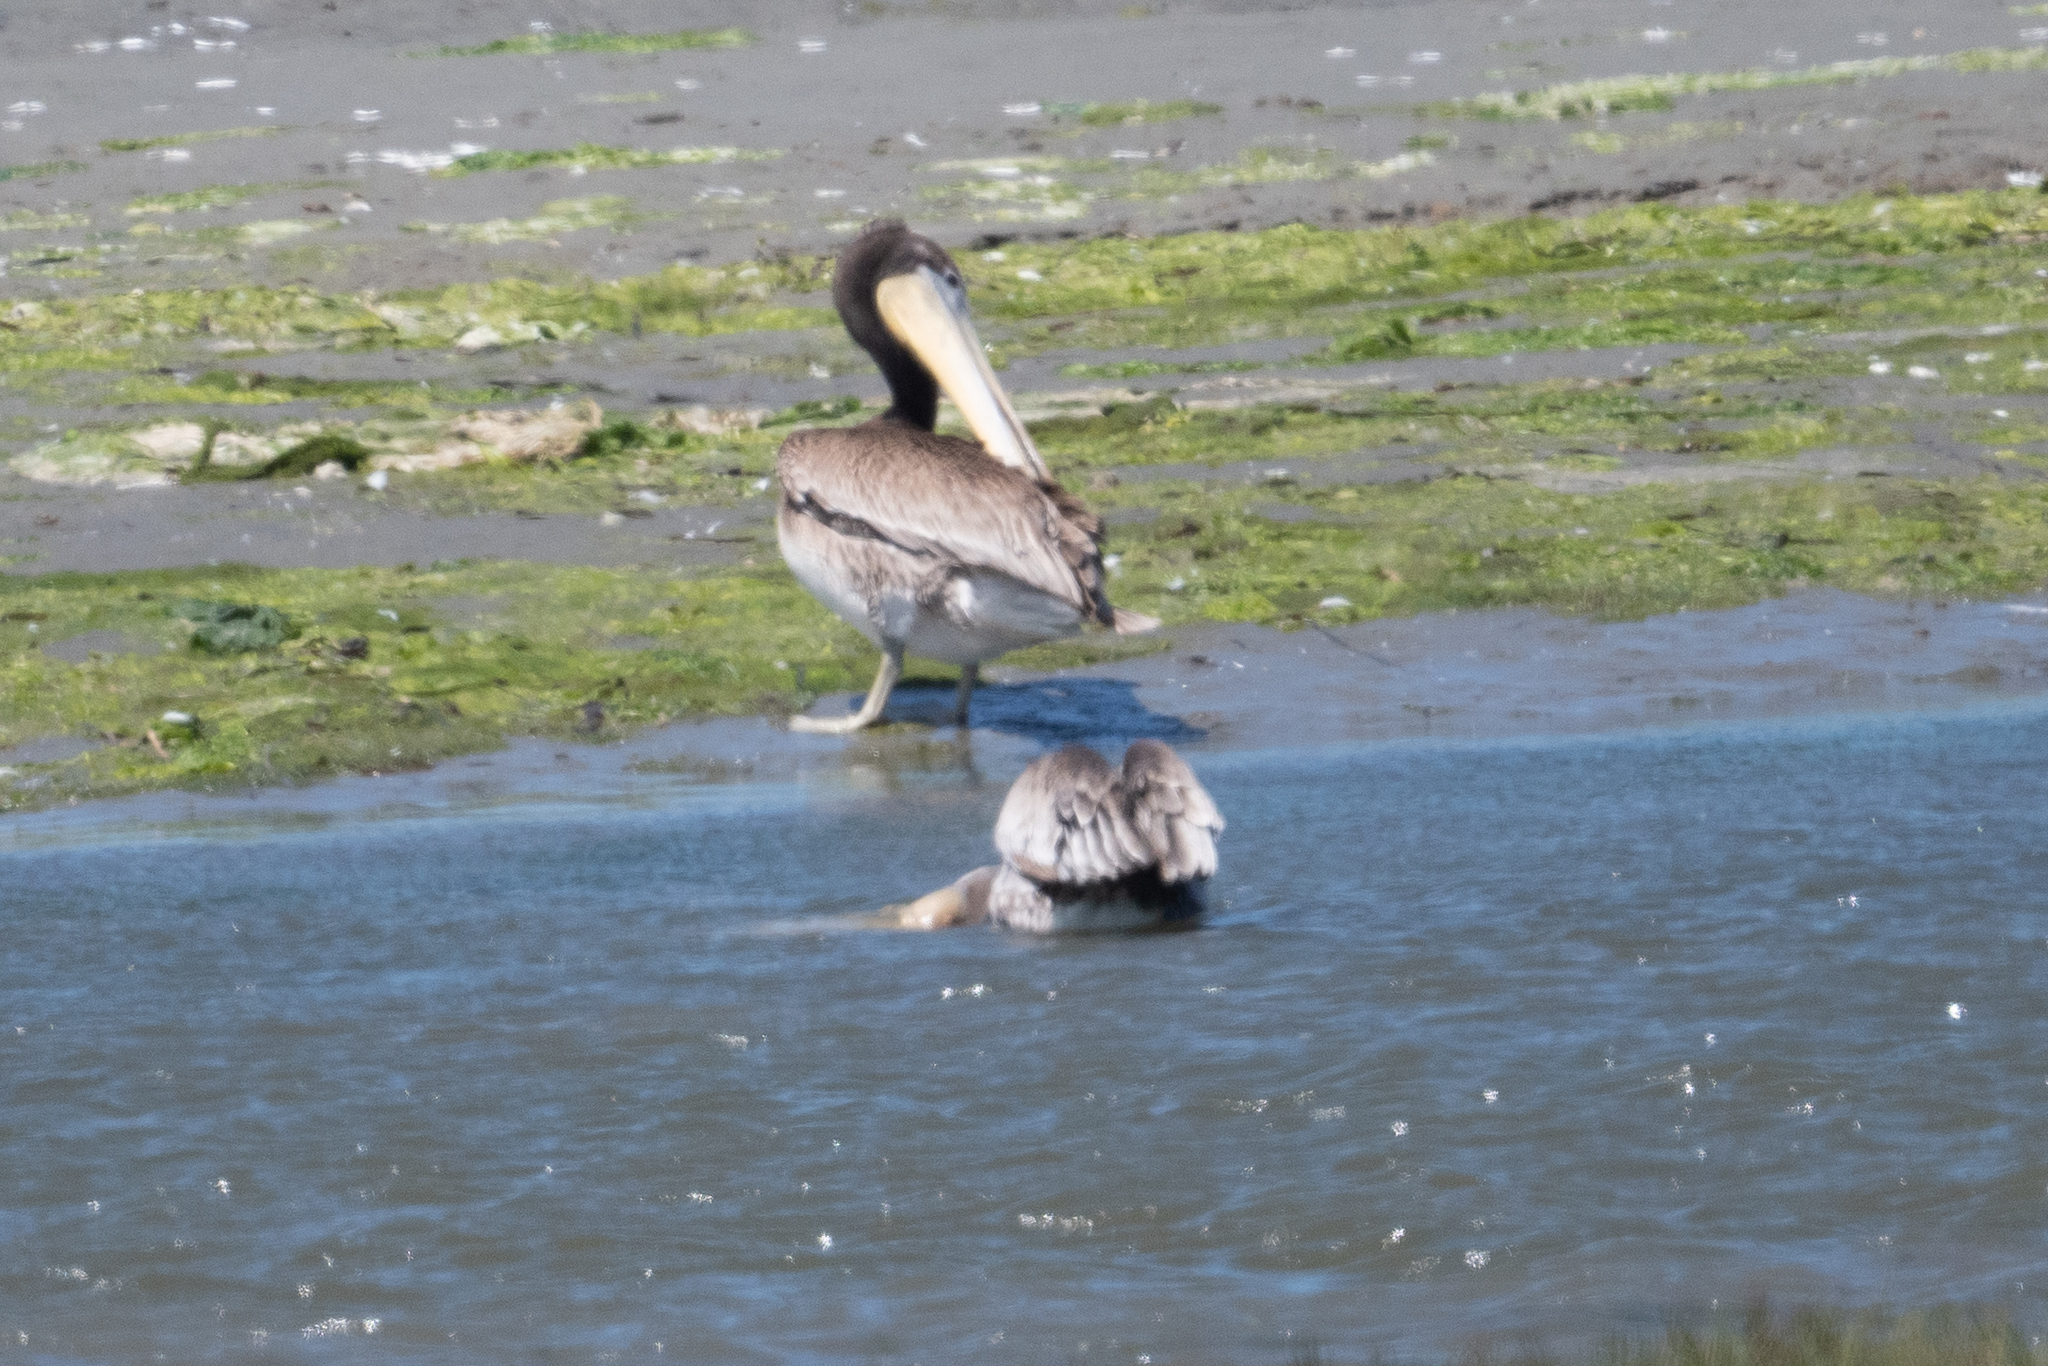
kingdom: Animalia
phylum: Chordata
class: Aves
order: Pelecaniformes
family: Pelecanidae
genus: Pelecanus
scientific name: Pelecanus occidentalis
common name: Brown pelican
